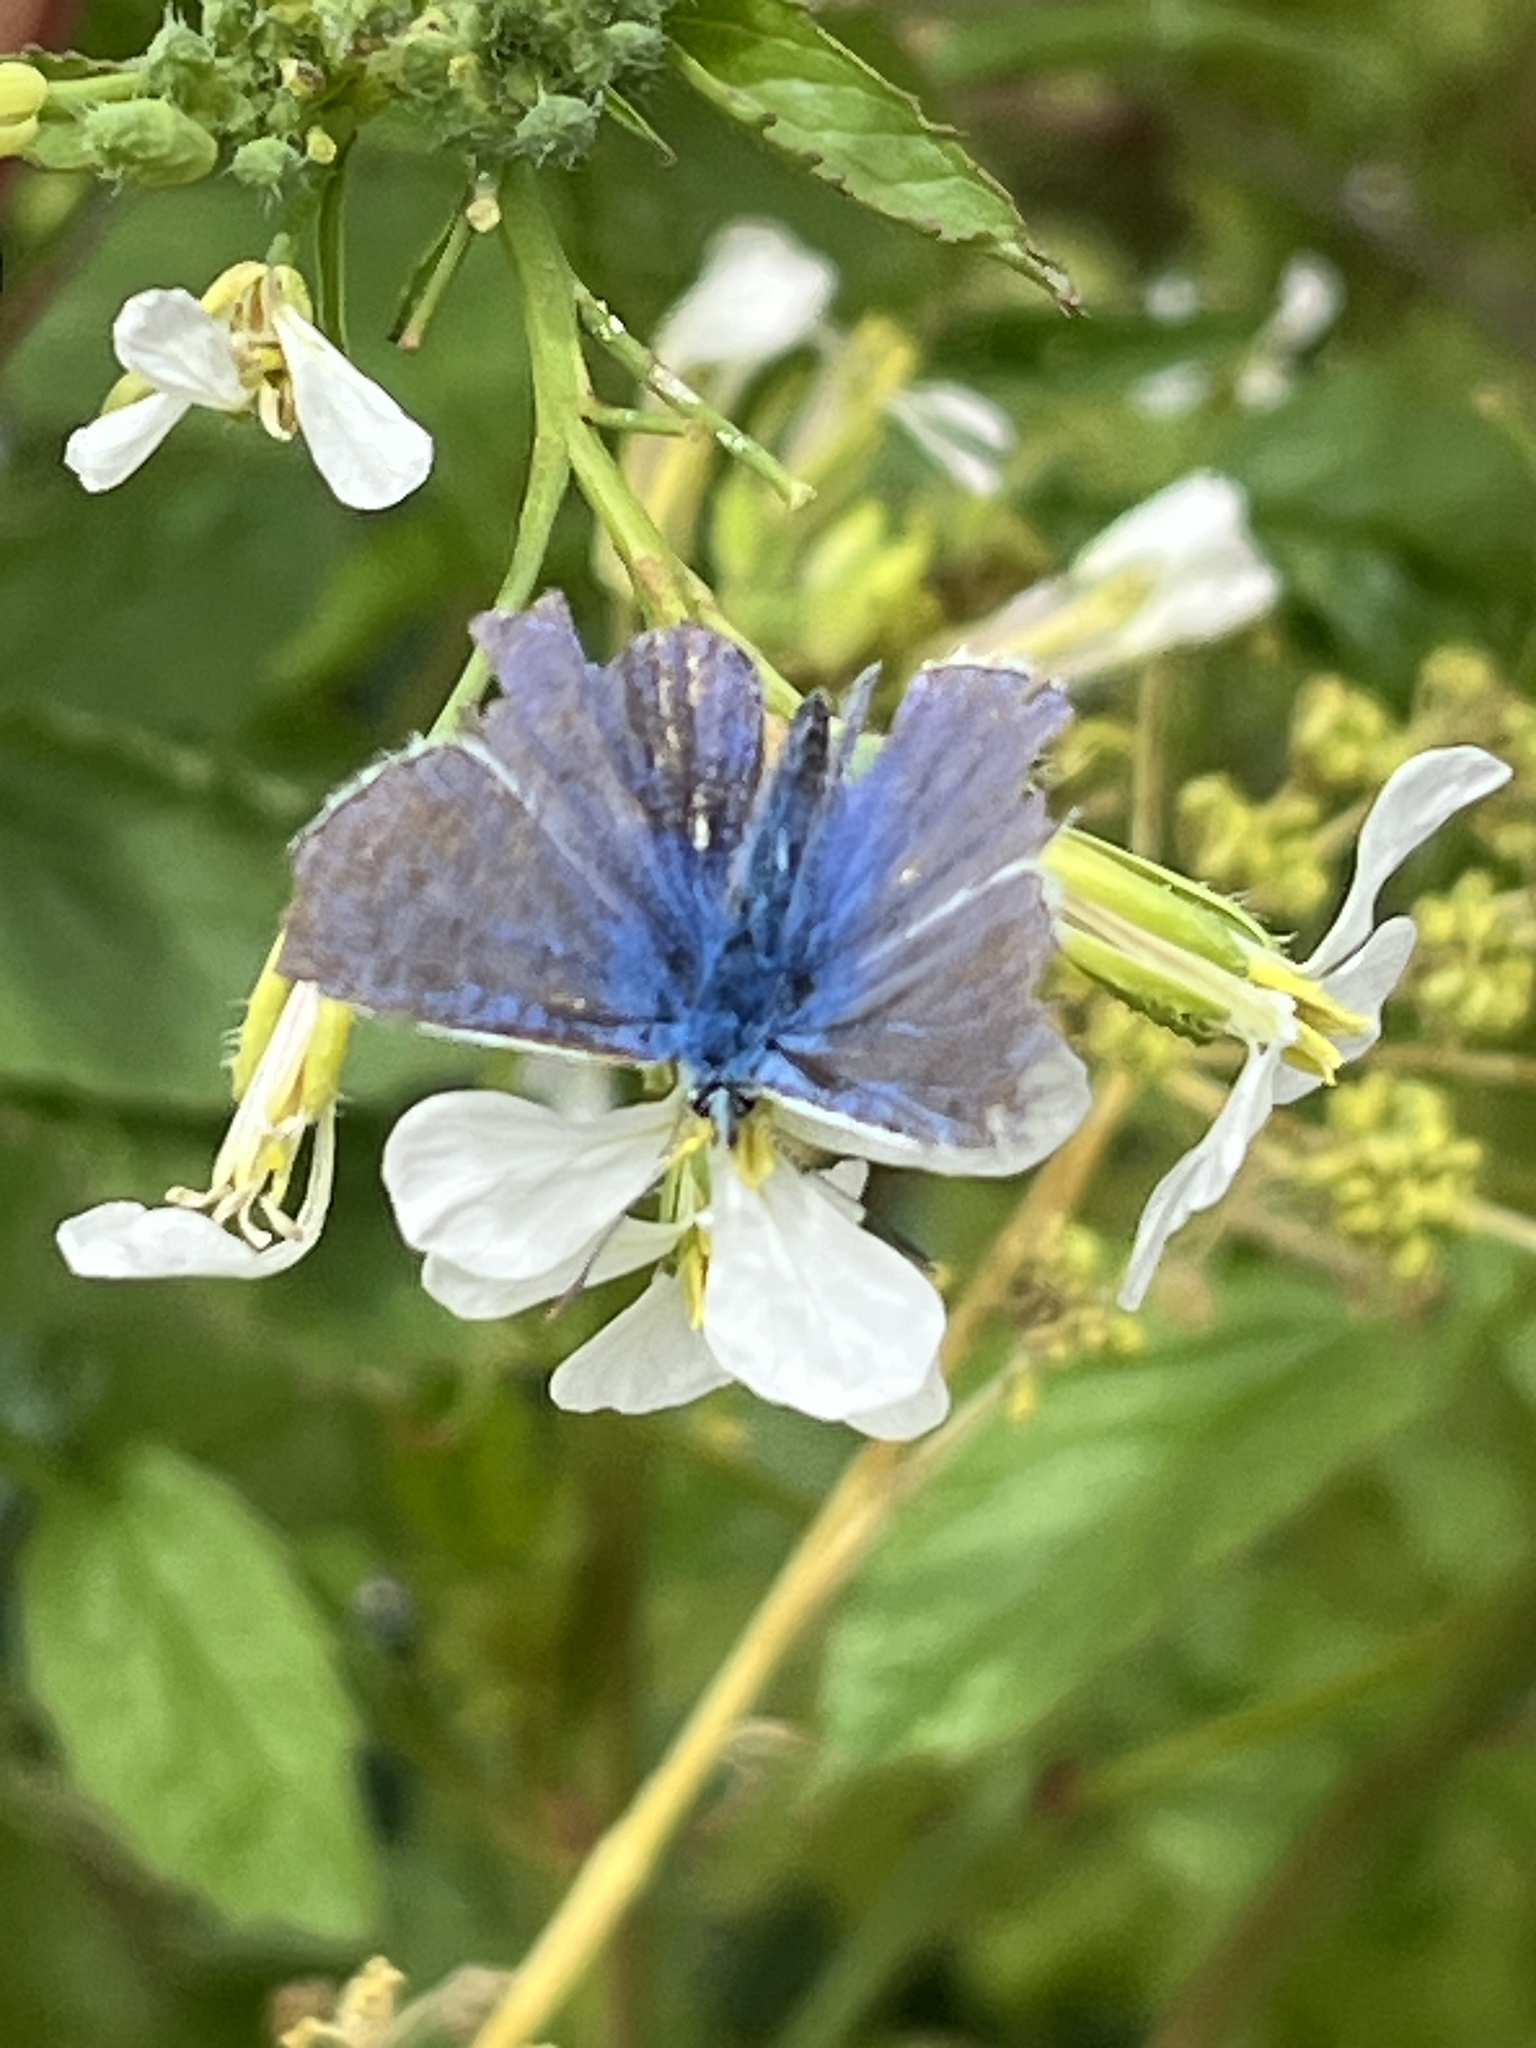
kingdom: Animalia
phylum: Arthropoda
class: Insecta
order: Lepidoptera
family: Lycaenidae
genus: Polyommatus
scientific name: Polyommatus icarus
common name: Common blue
